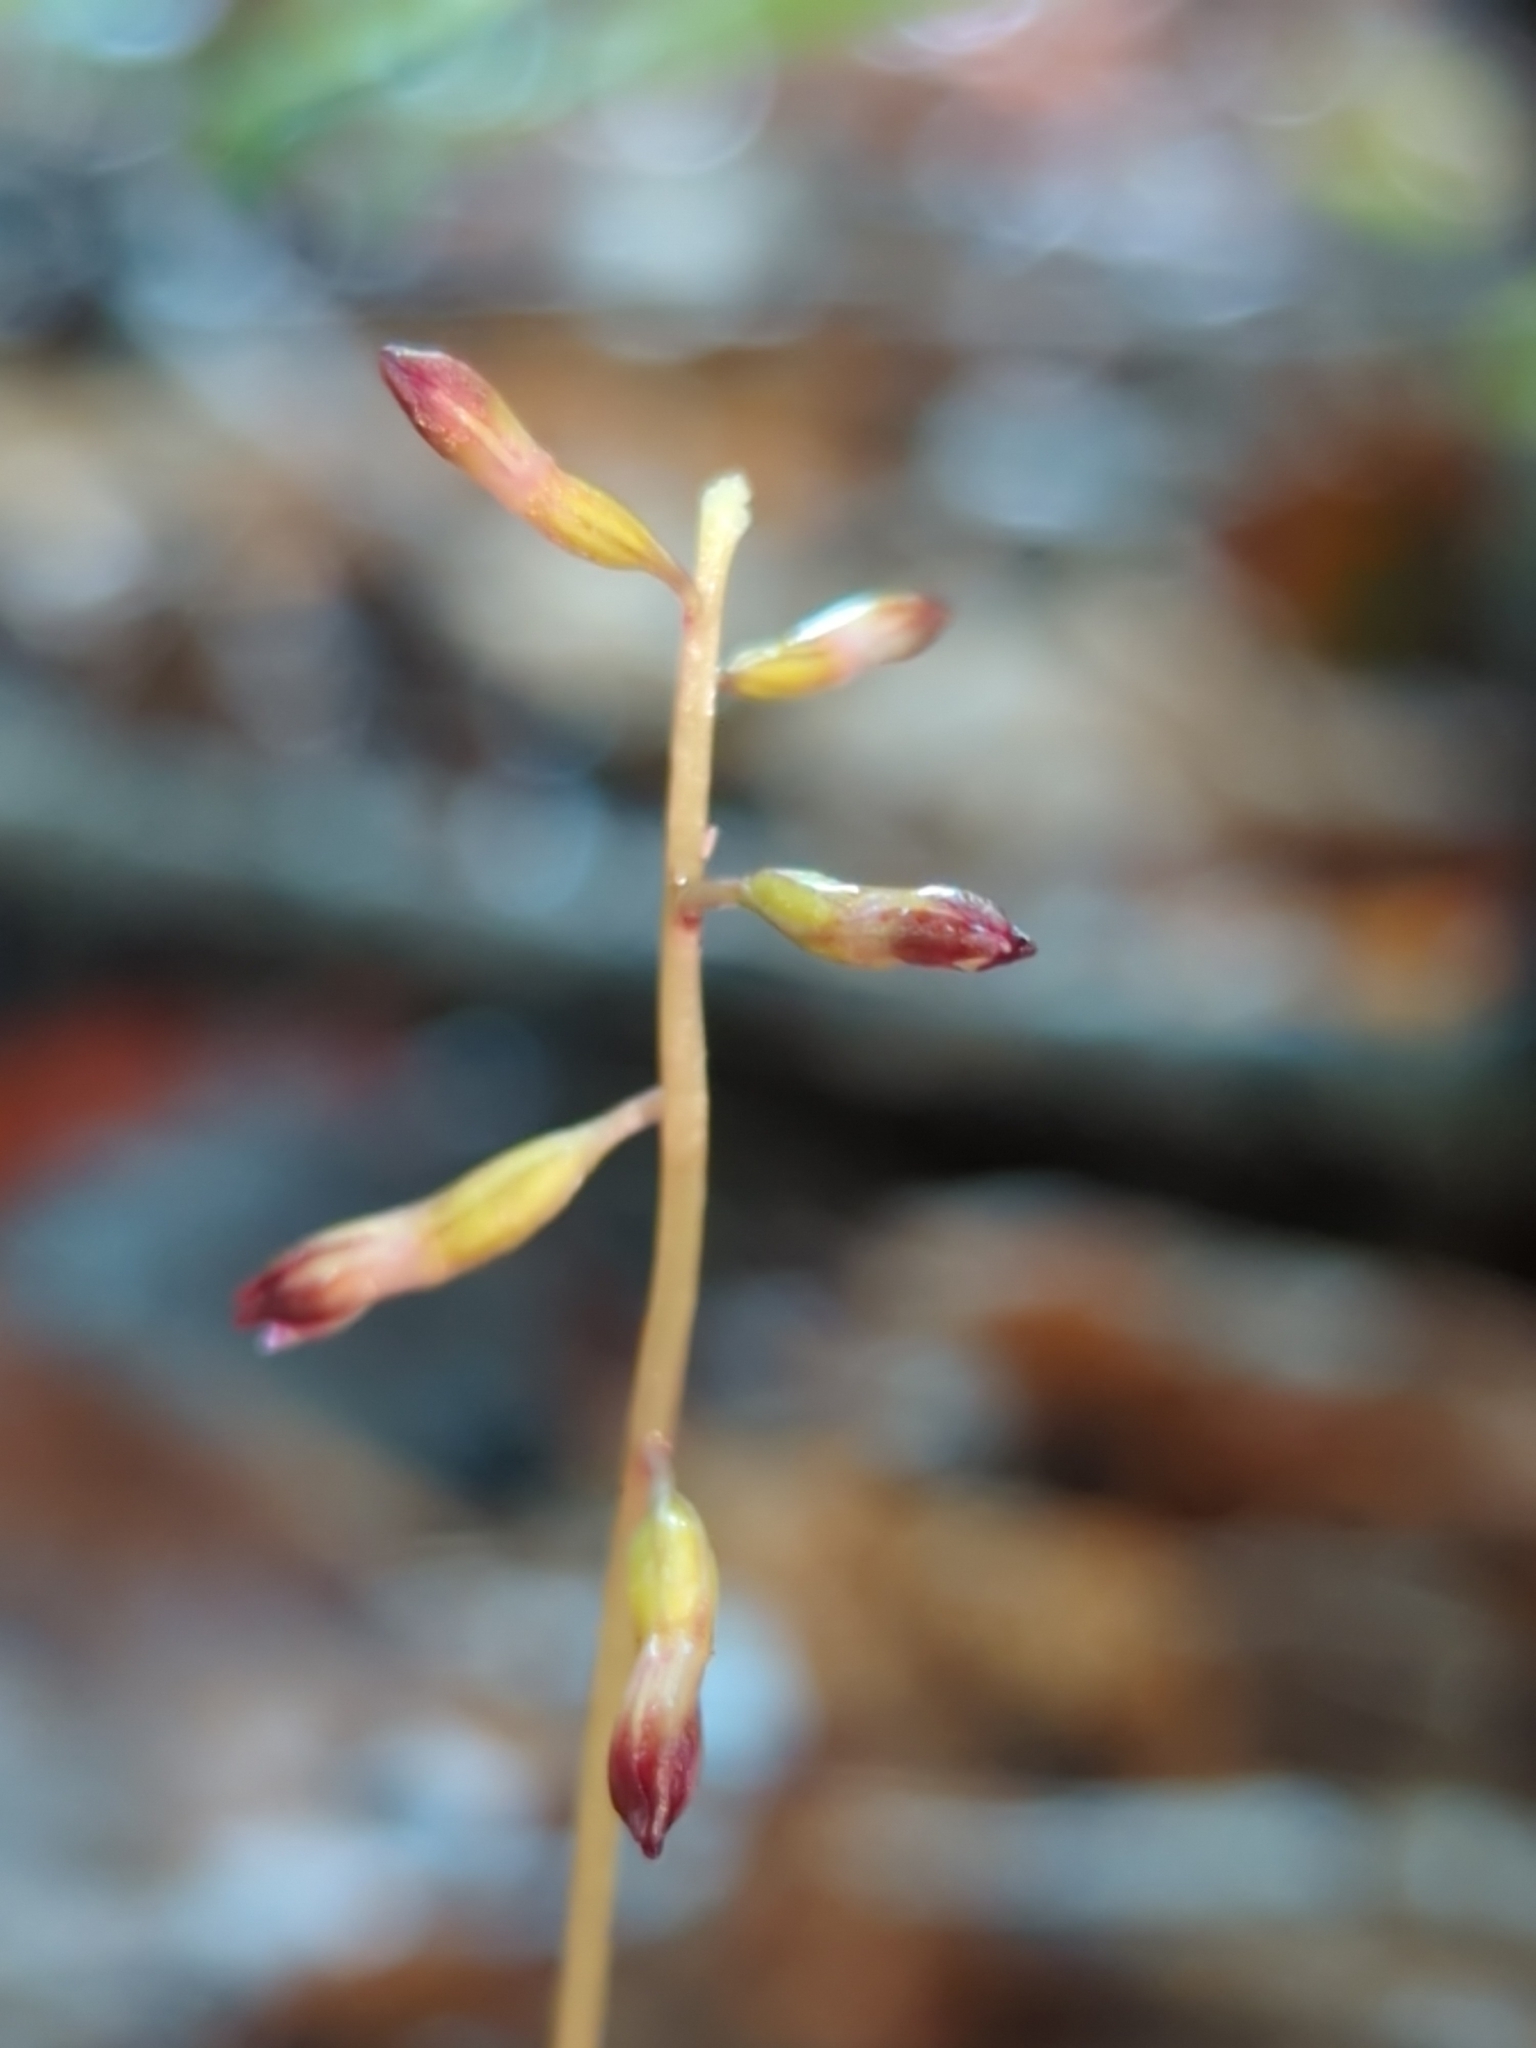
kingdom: Plantae
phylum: Tracheophyta
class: Liliopsida
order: Asparagales
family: Orchidaceae
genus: Corallorhiza
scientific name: Corallorhiza odontorhiza
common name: Autumn coralroot
